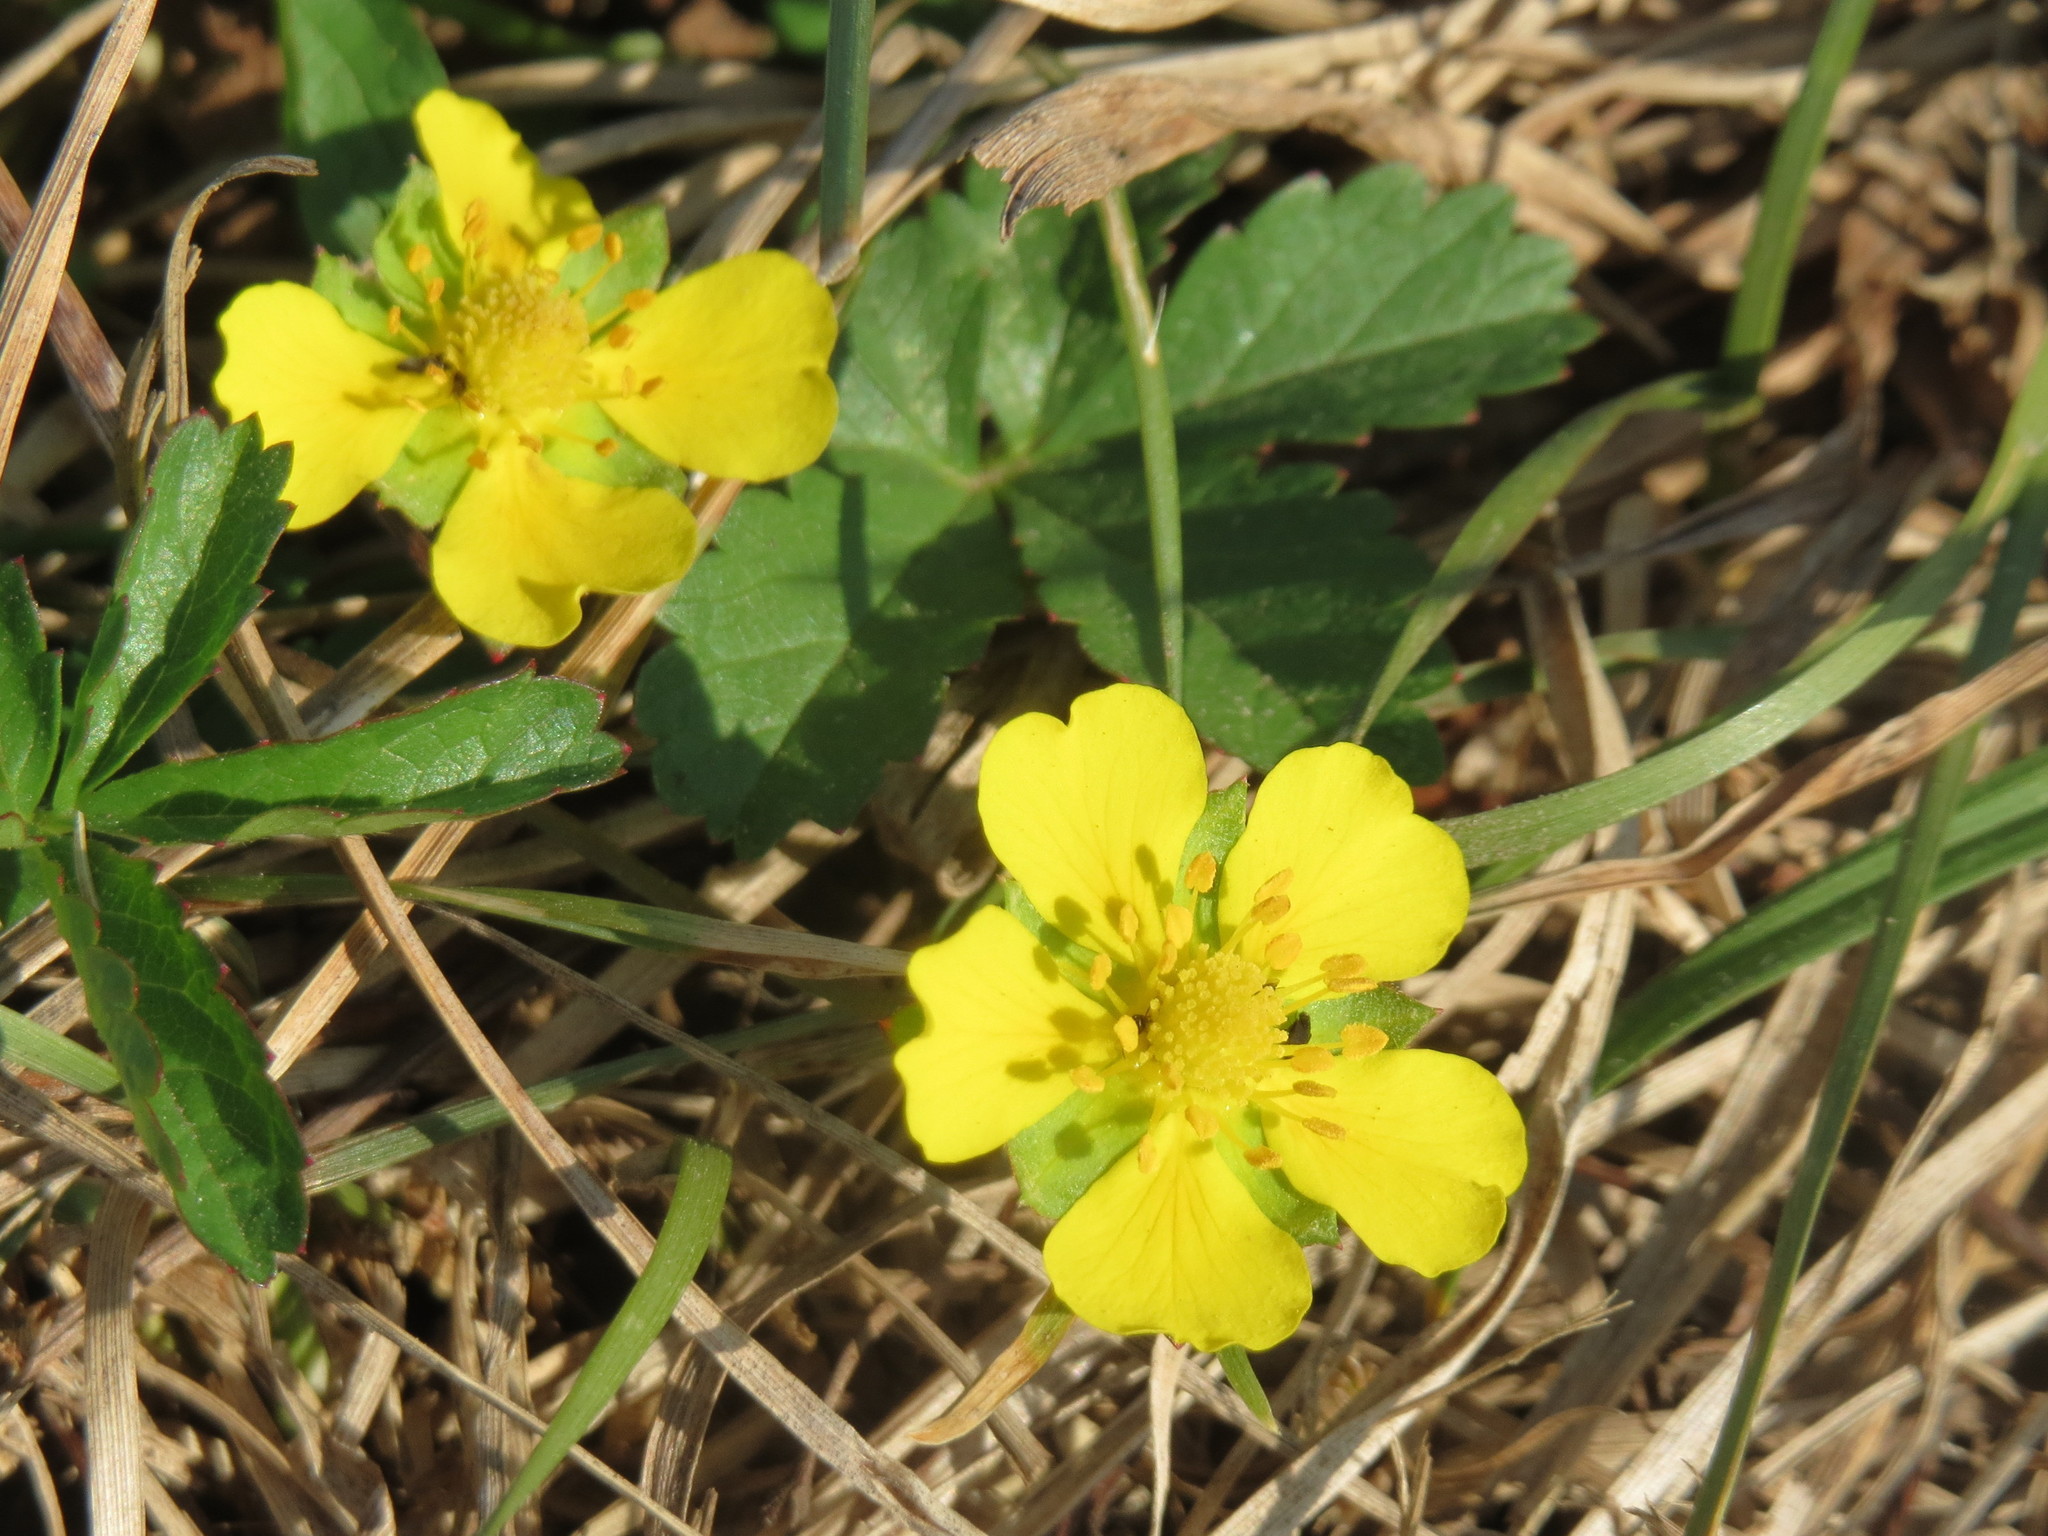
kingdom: Plantae
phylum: Tracheophyta
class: Magnoliopsida
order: Rosales
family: Rosaceae
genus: Potentilla
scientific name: Potentilla reptans
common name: Creeping cinquefoil
